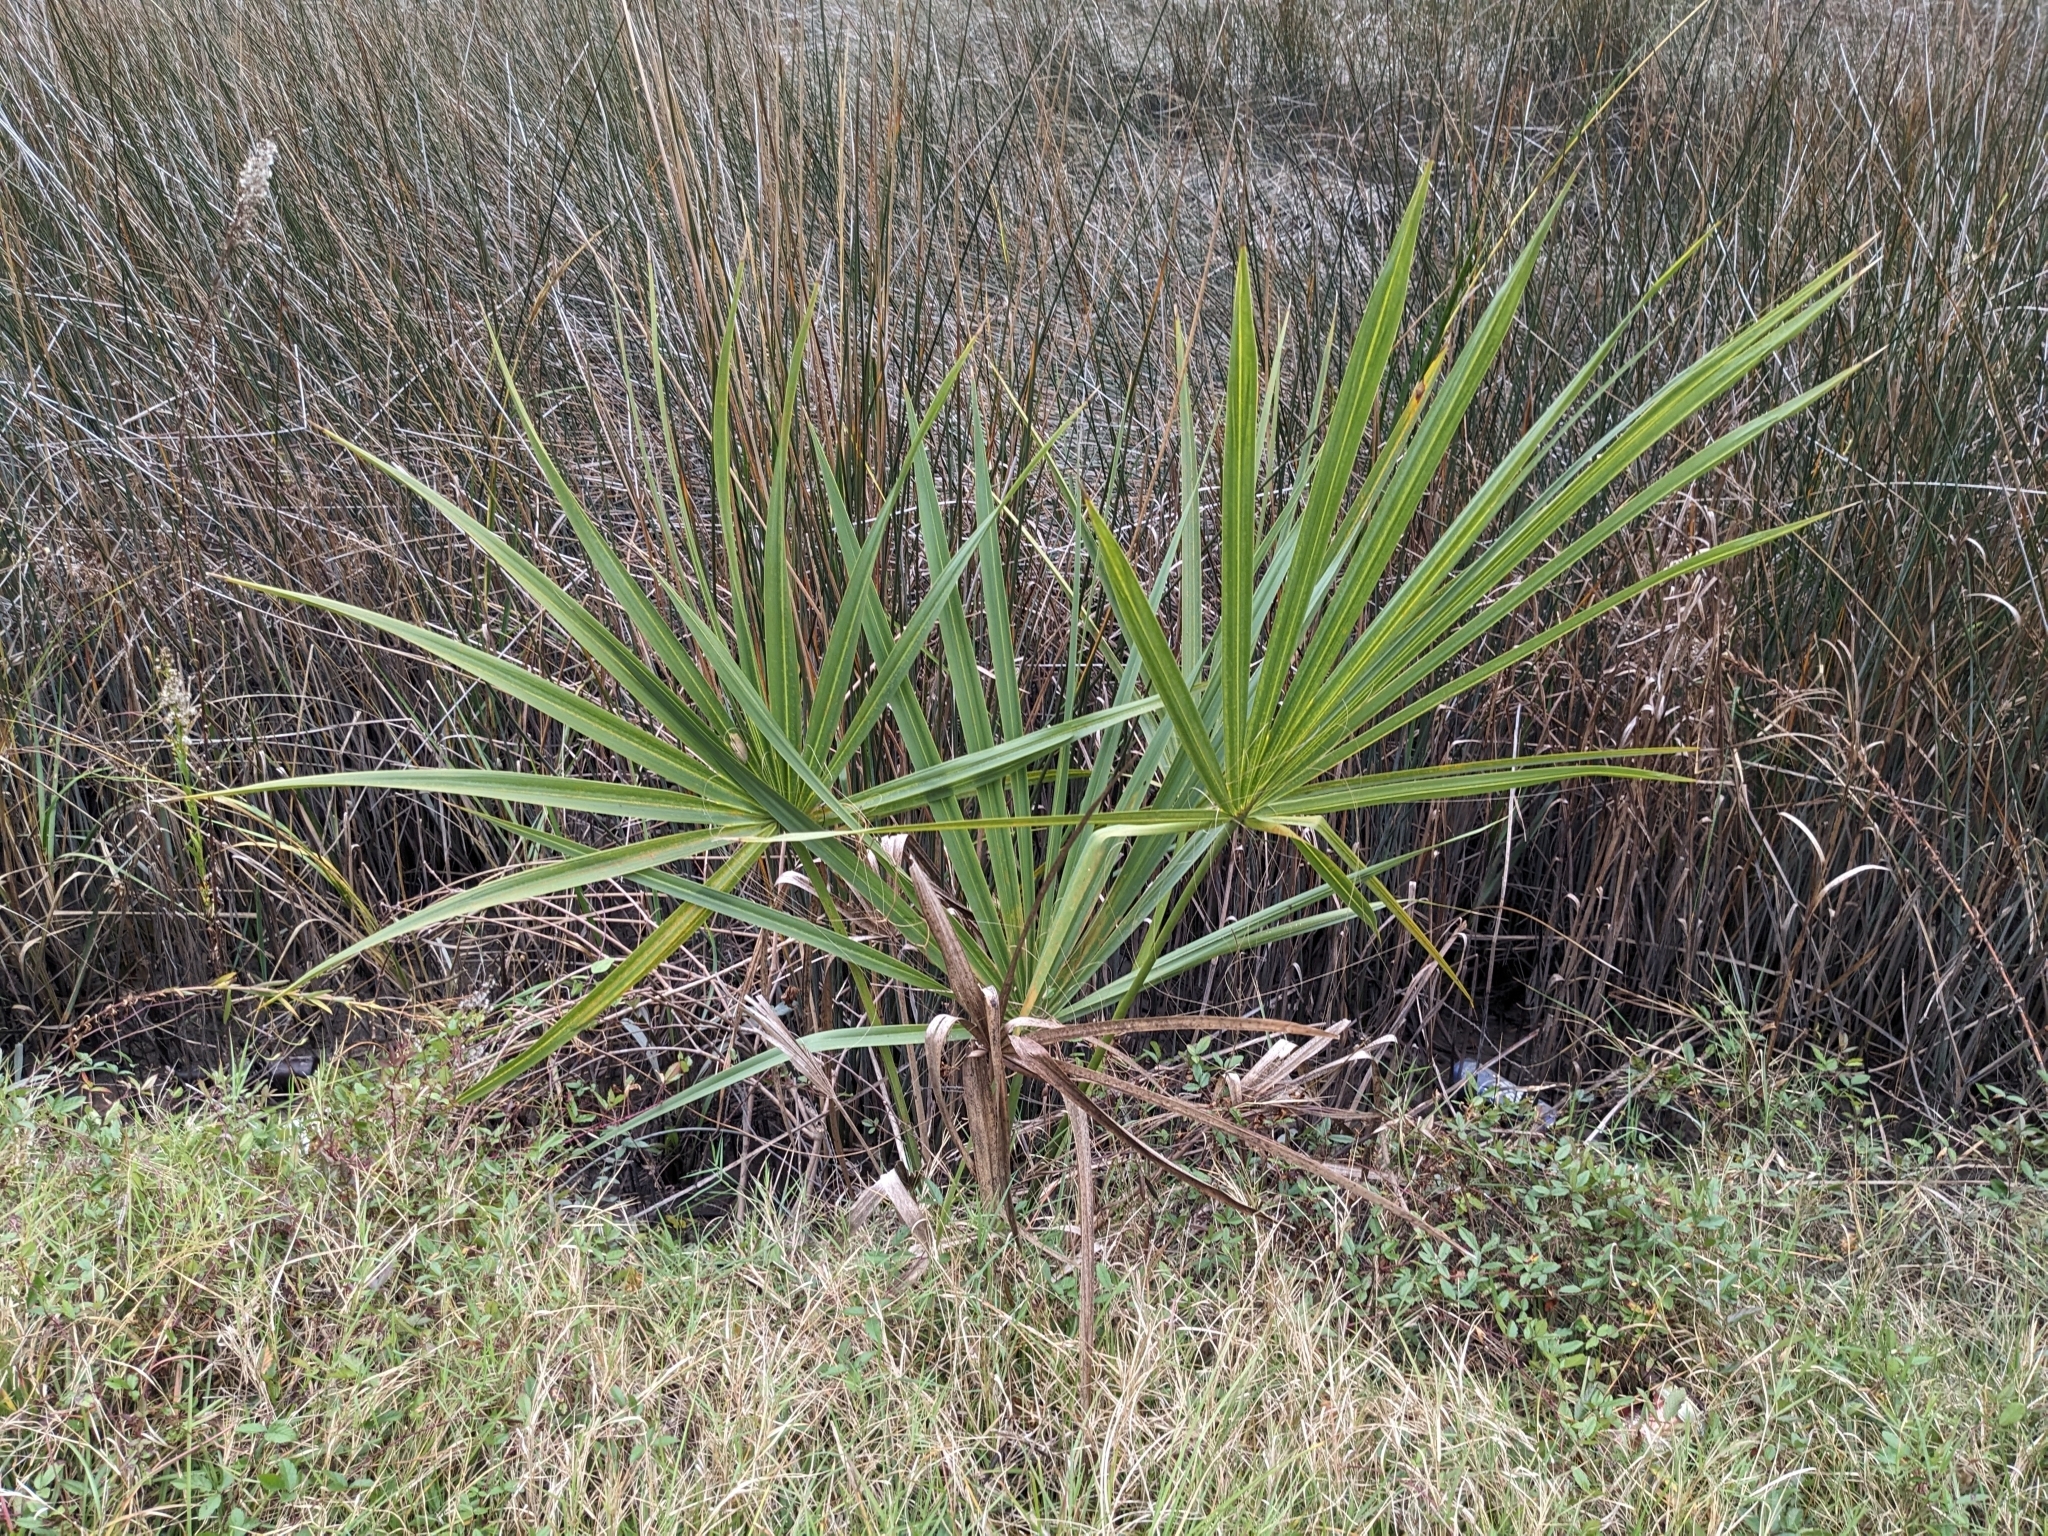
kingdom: Plantae
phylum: Tracheophyta
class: Liliopsida
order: Arecales
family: Arecaceae
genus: Sabal
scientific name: Sabal minor
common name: Dwarf palmetto
